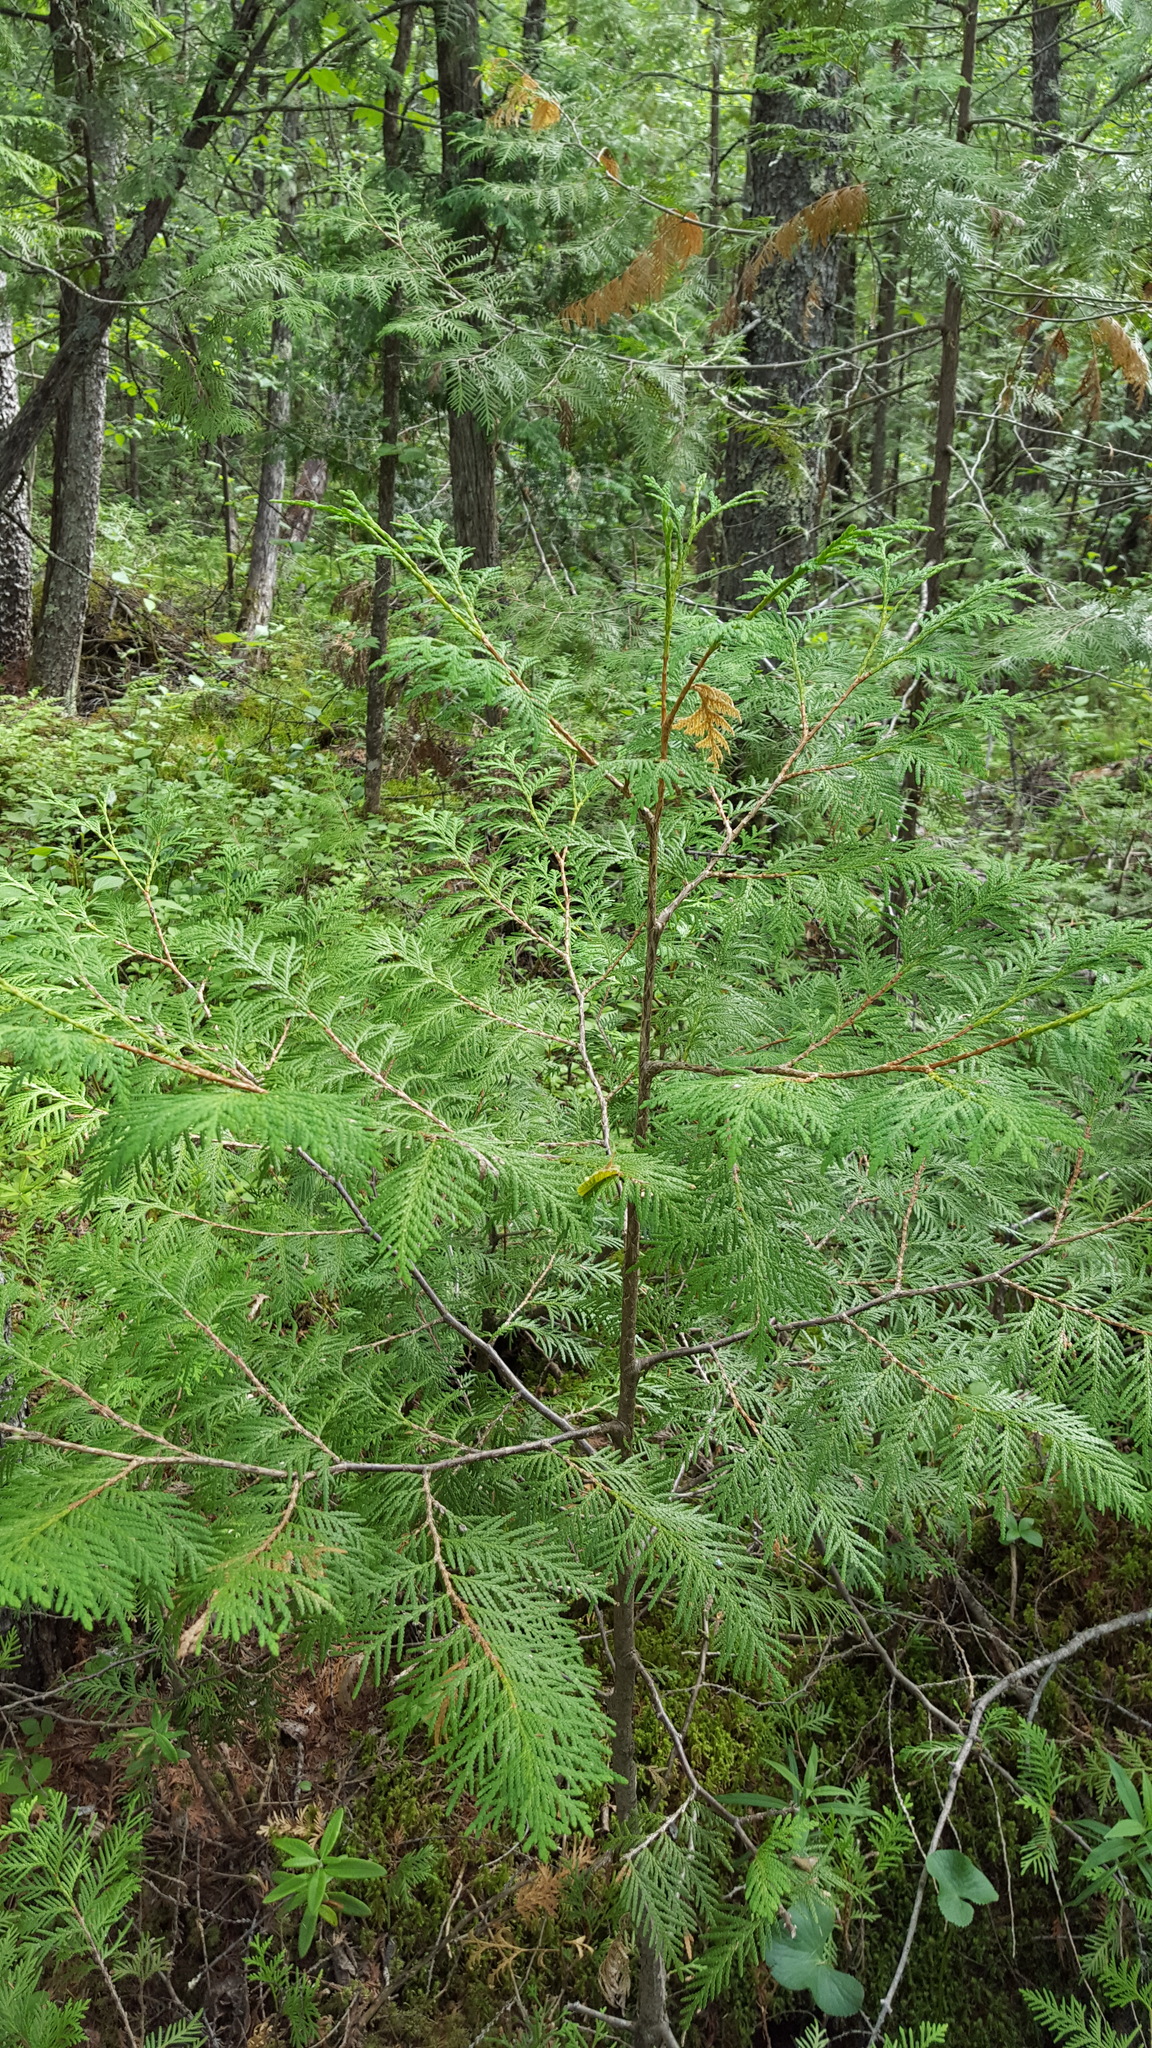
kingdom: Plantae
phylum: Tracheophyta
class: Pinopsida
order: Pinales
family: Cupressaceae
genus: Thuja
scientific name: Thuja occidentalis
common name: Northern white-cedar
